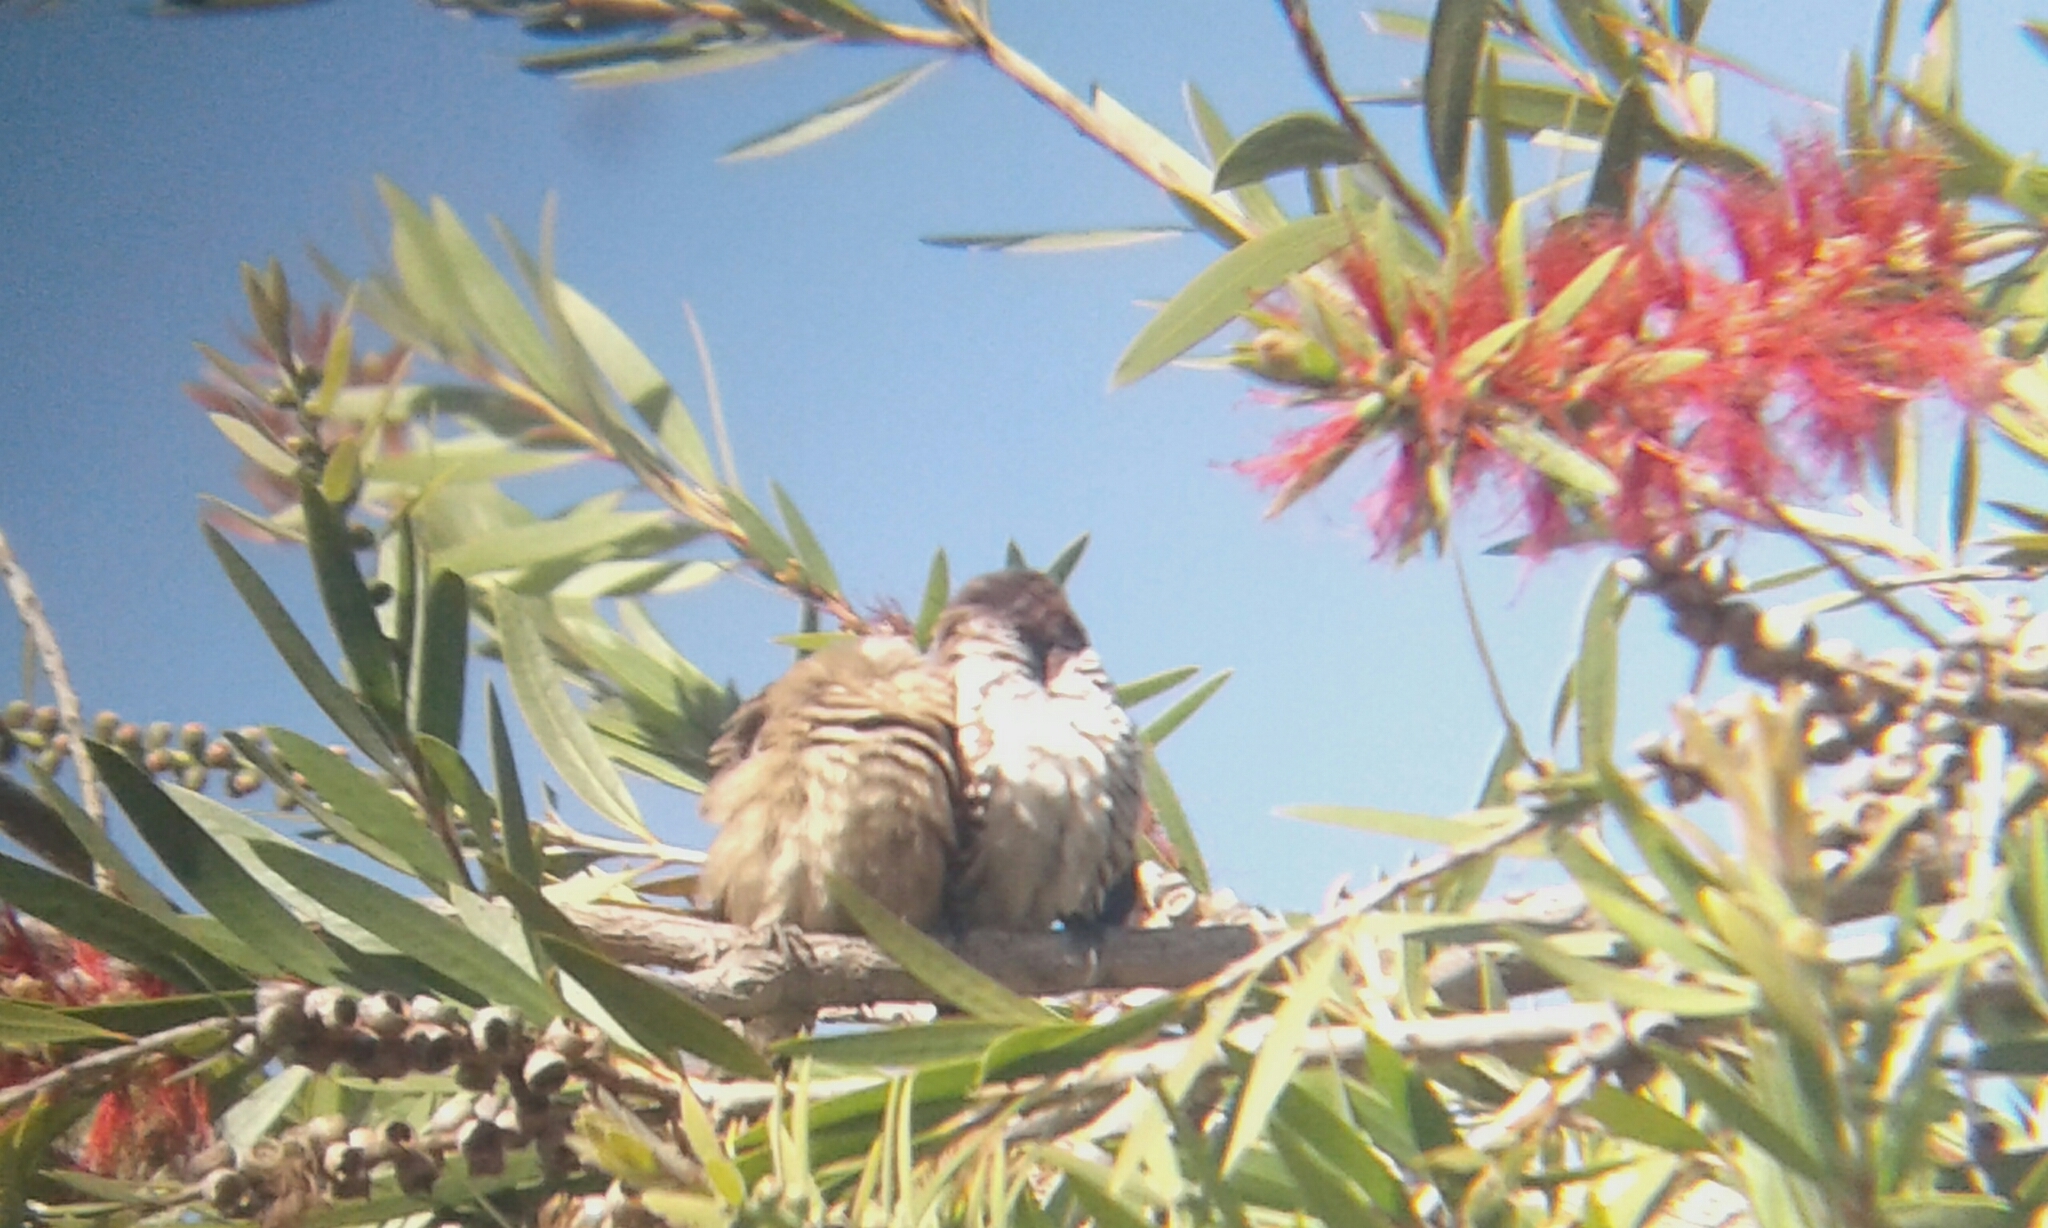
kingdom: Animalia
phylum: Chordata
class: Aves
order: Passeriformes
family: Estrildidae
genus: Lonchura
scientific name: Lonchura cucullata
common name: Bronze mannikin
